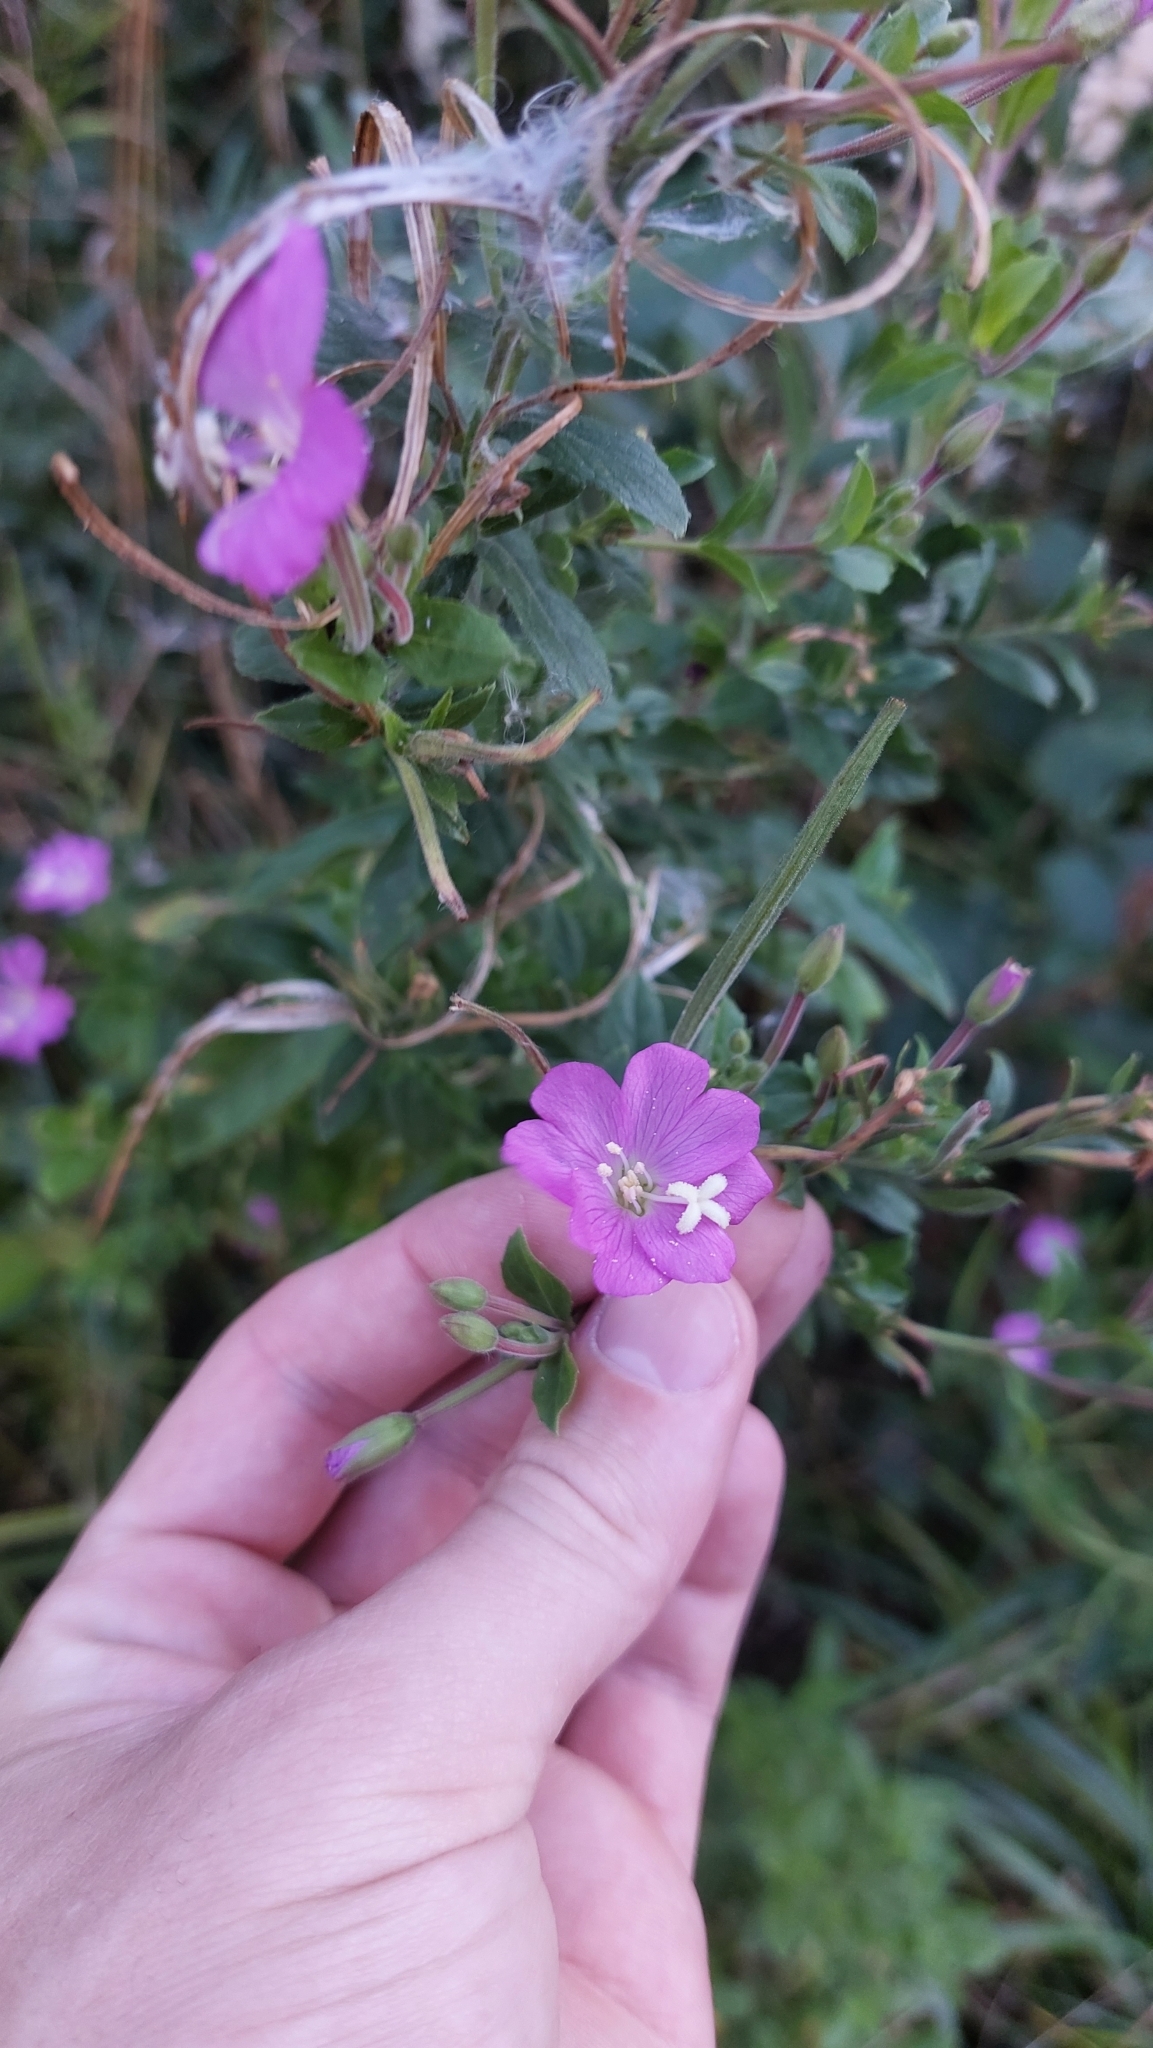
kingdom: Plantae
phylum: Tracheophyta
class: Magnoliopsida
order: Myrtales
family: Onagraceae
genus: Epilobium
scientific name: Epilobium hirsutum
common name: Great willowherb
